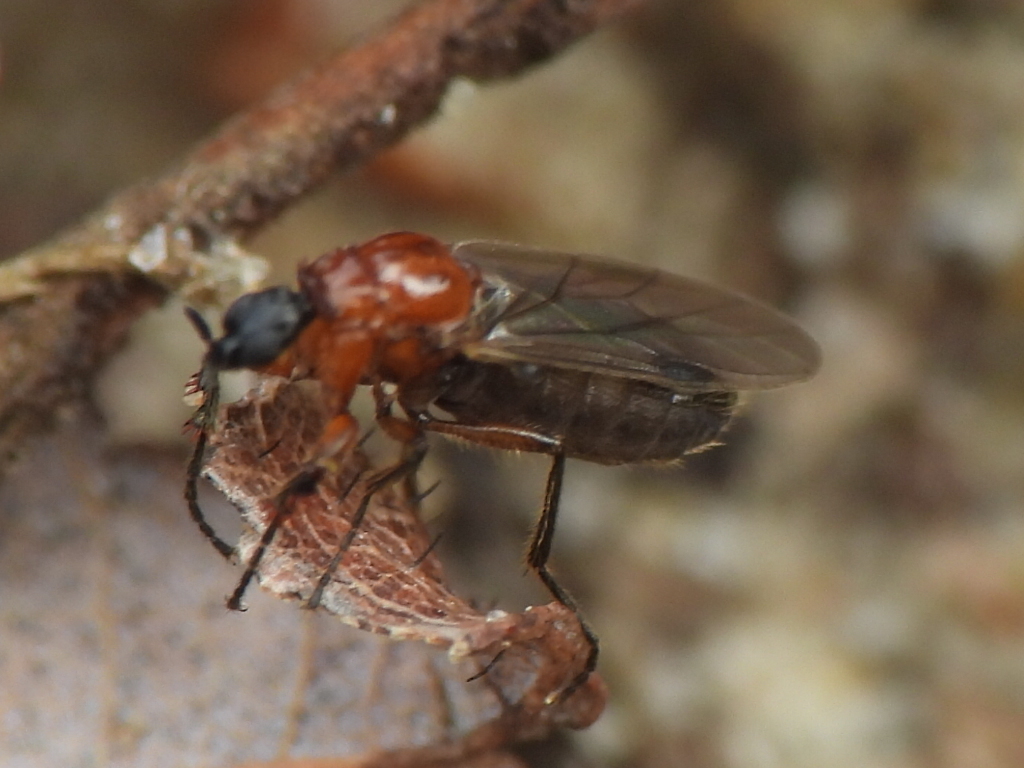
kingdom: Animalia
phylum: Arthropoda
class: Insecta
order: Diptera
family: Bibionidae
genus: Dilophus
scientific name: Dilophus tibialis
